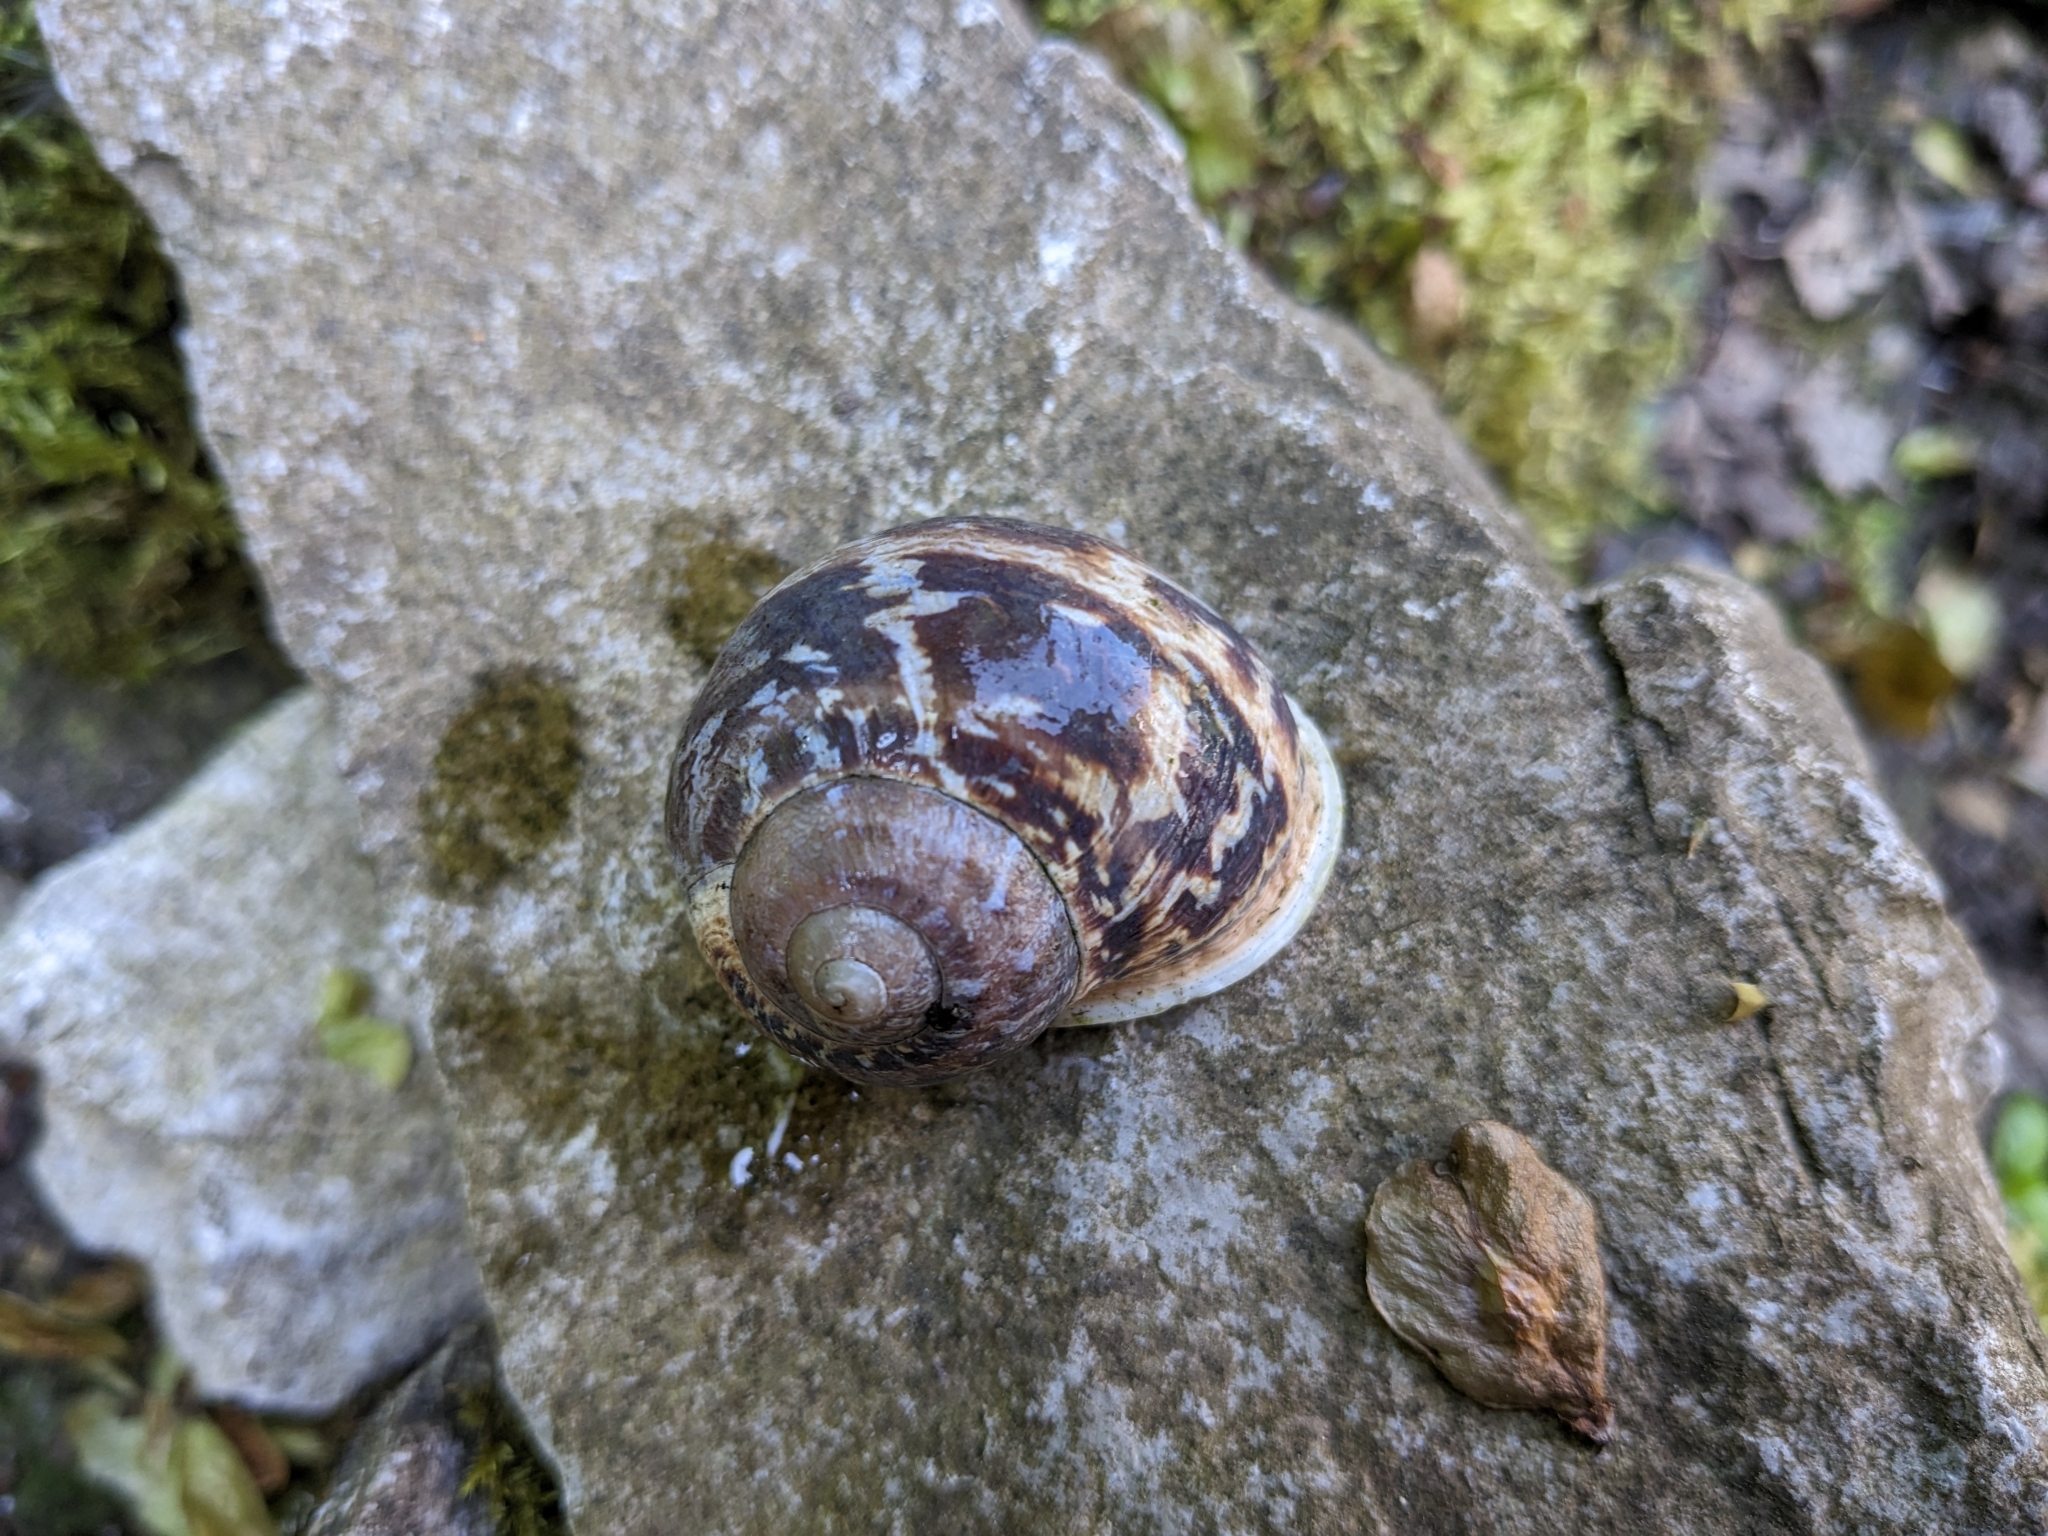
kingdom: Animalia
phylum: Mollusca
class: Gastropoda
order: Stylommatophora
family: Helicidae
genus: Cornu
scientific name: Cornu aspersum
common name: Brown garden snail
